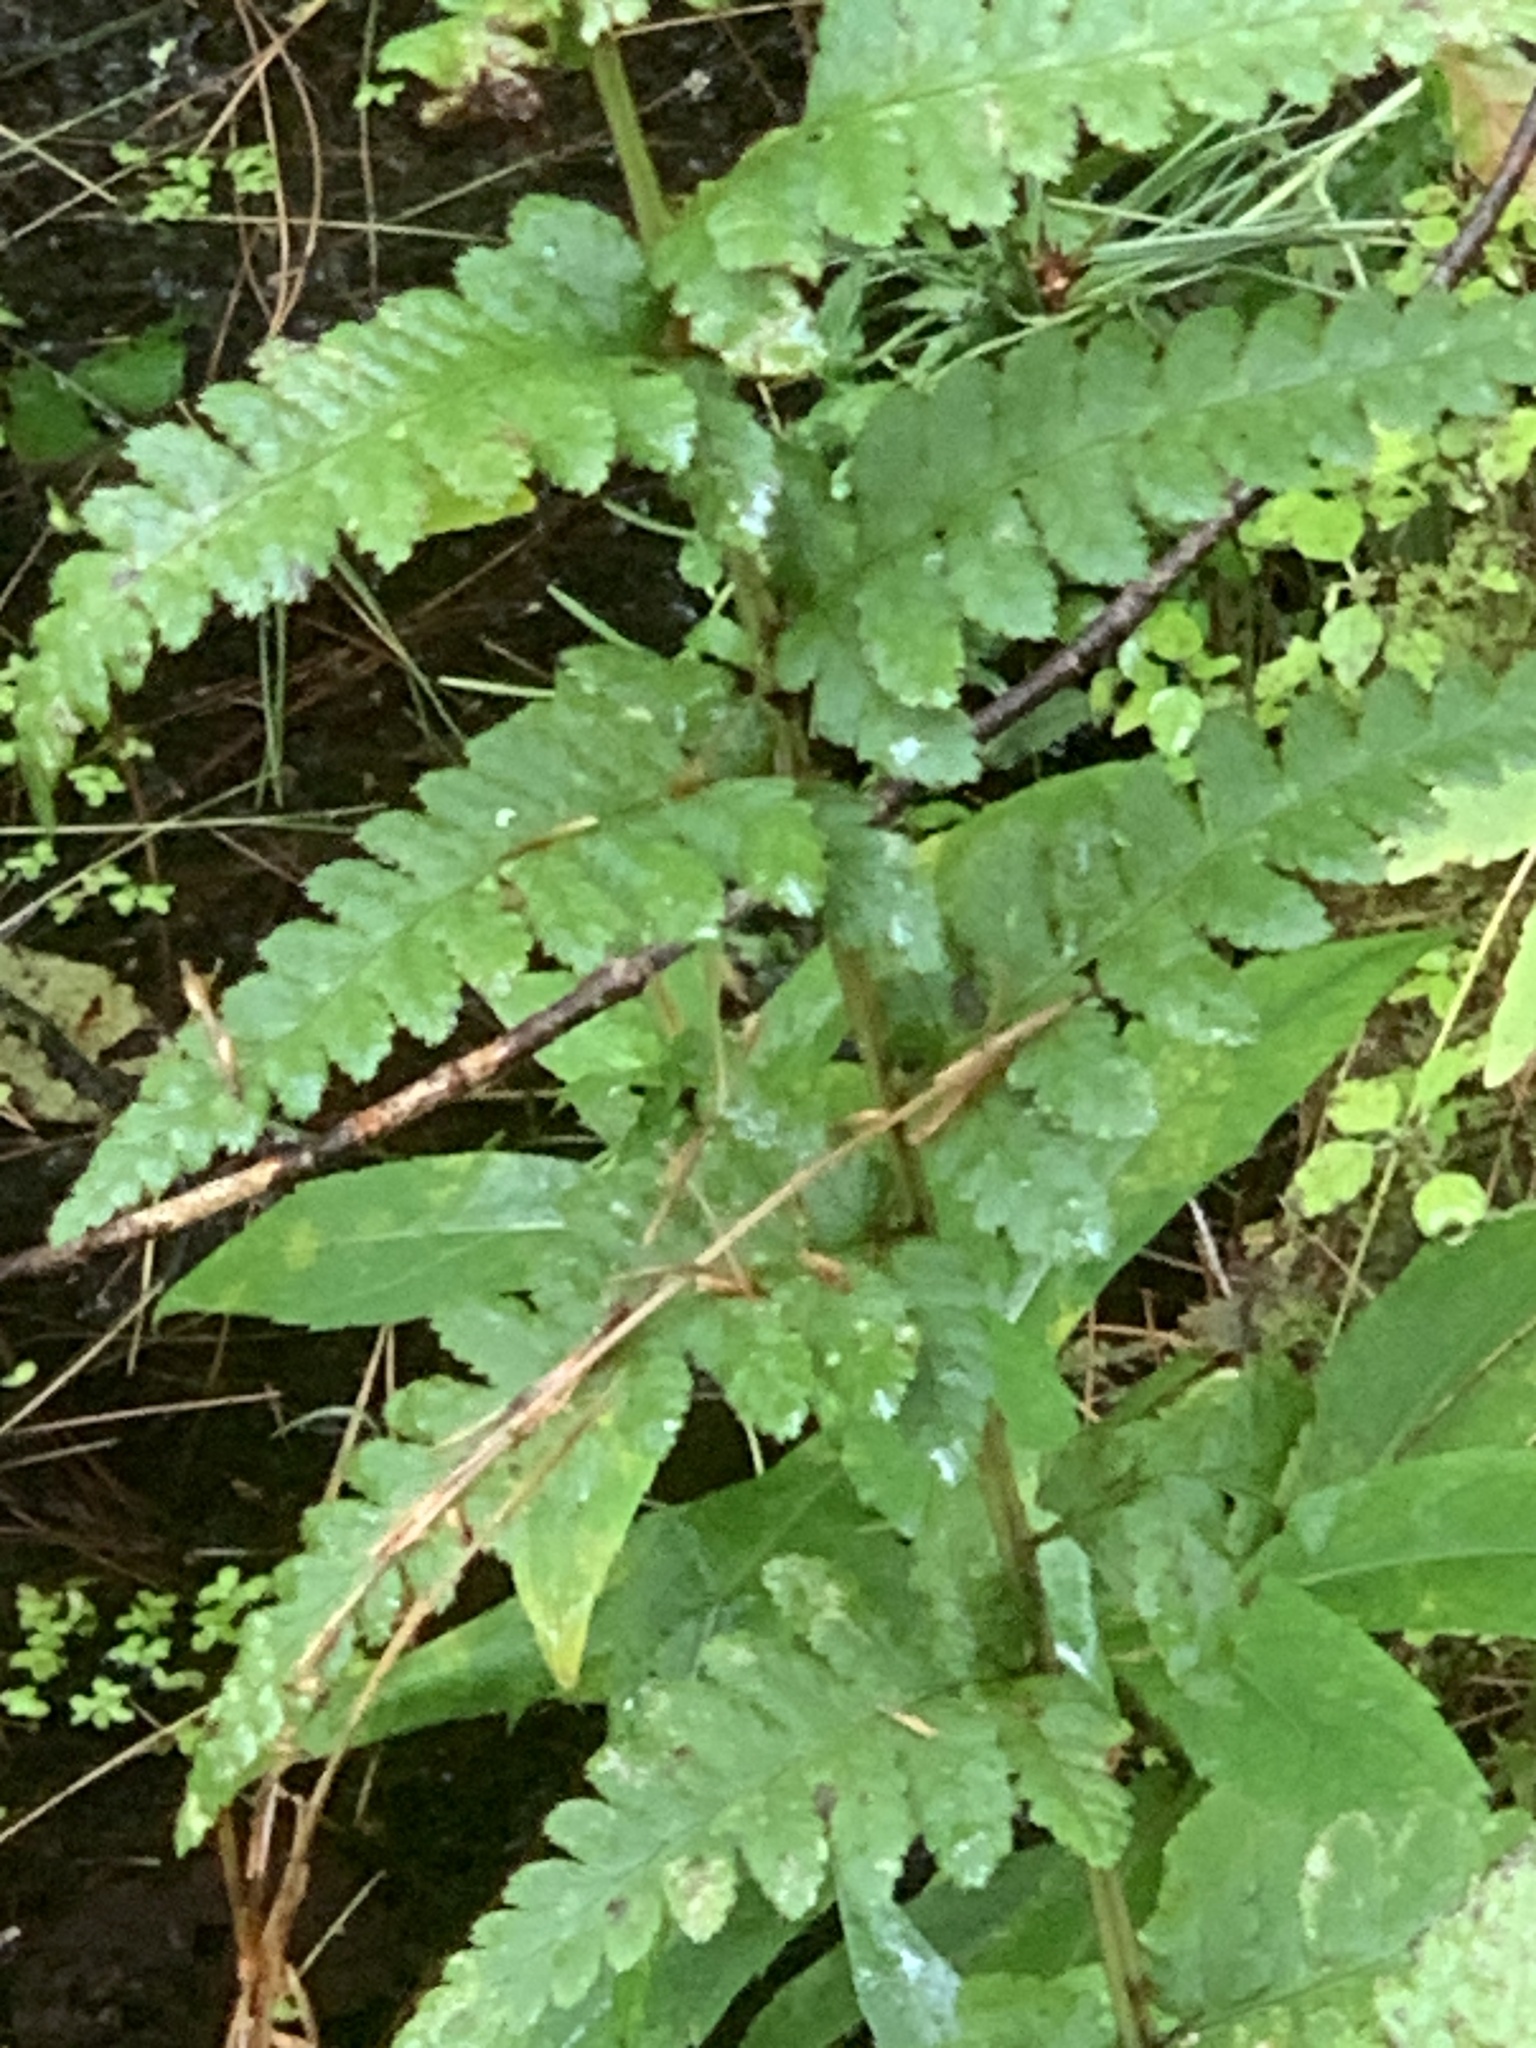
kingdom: Plantae
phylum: Tracheophyta
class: Polypodiopsida
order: Polypodiales
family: Dryopteridaceae
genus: Dryopteris
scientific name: Dryopteris boottii
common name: Boott's fern
